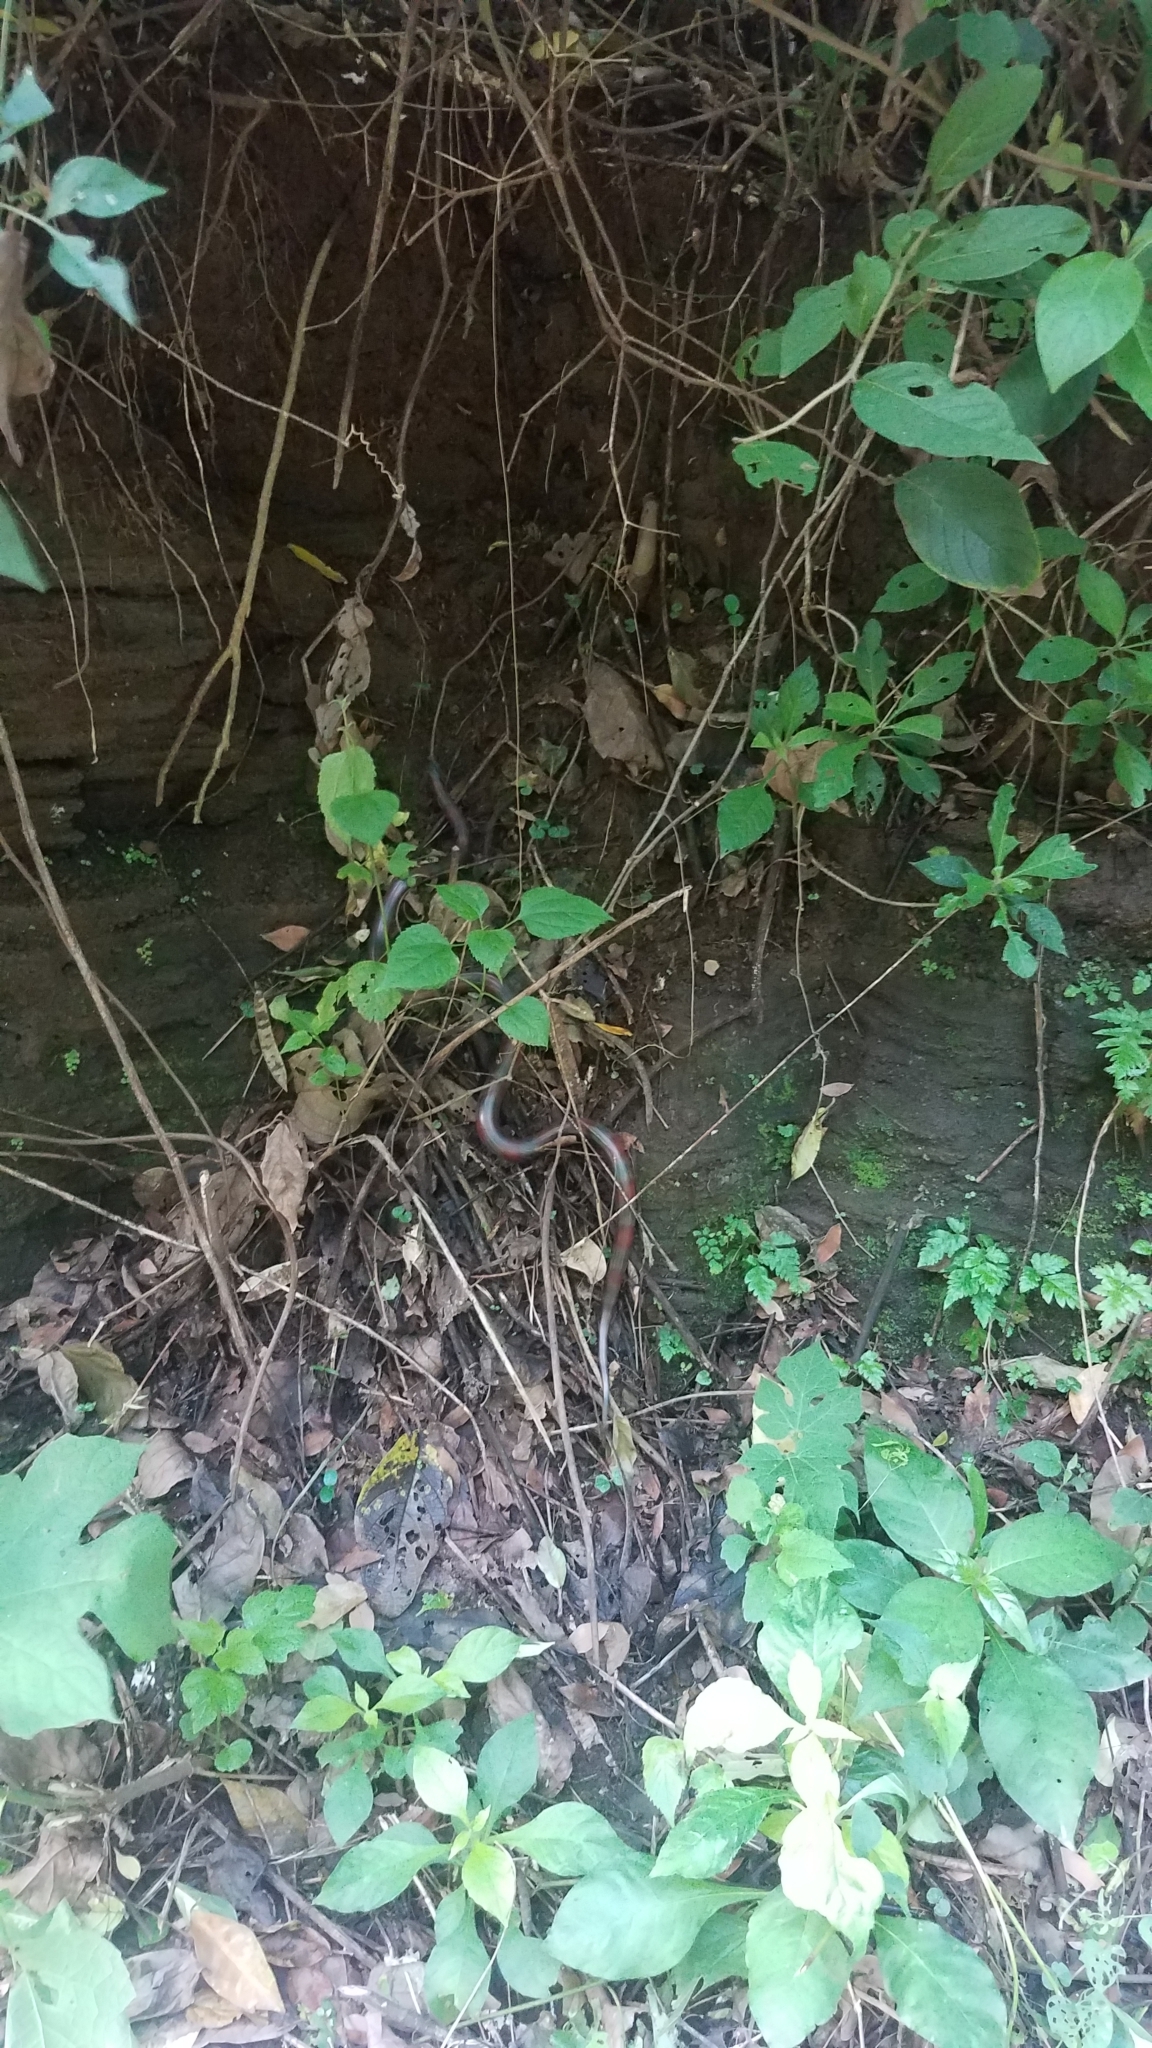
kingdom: Animalia
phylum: Chordata
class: Squamata
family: Colubridae
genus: Lampropeltis
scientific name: Lampropeltis abnorma
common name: Honduran milk snake
